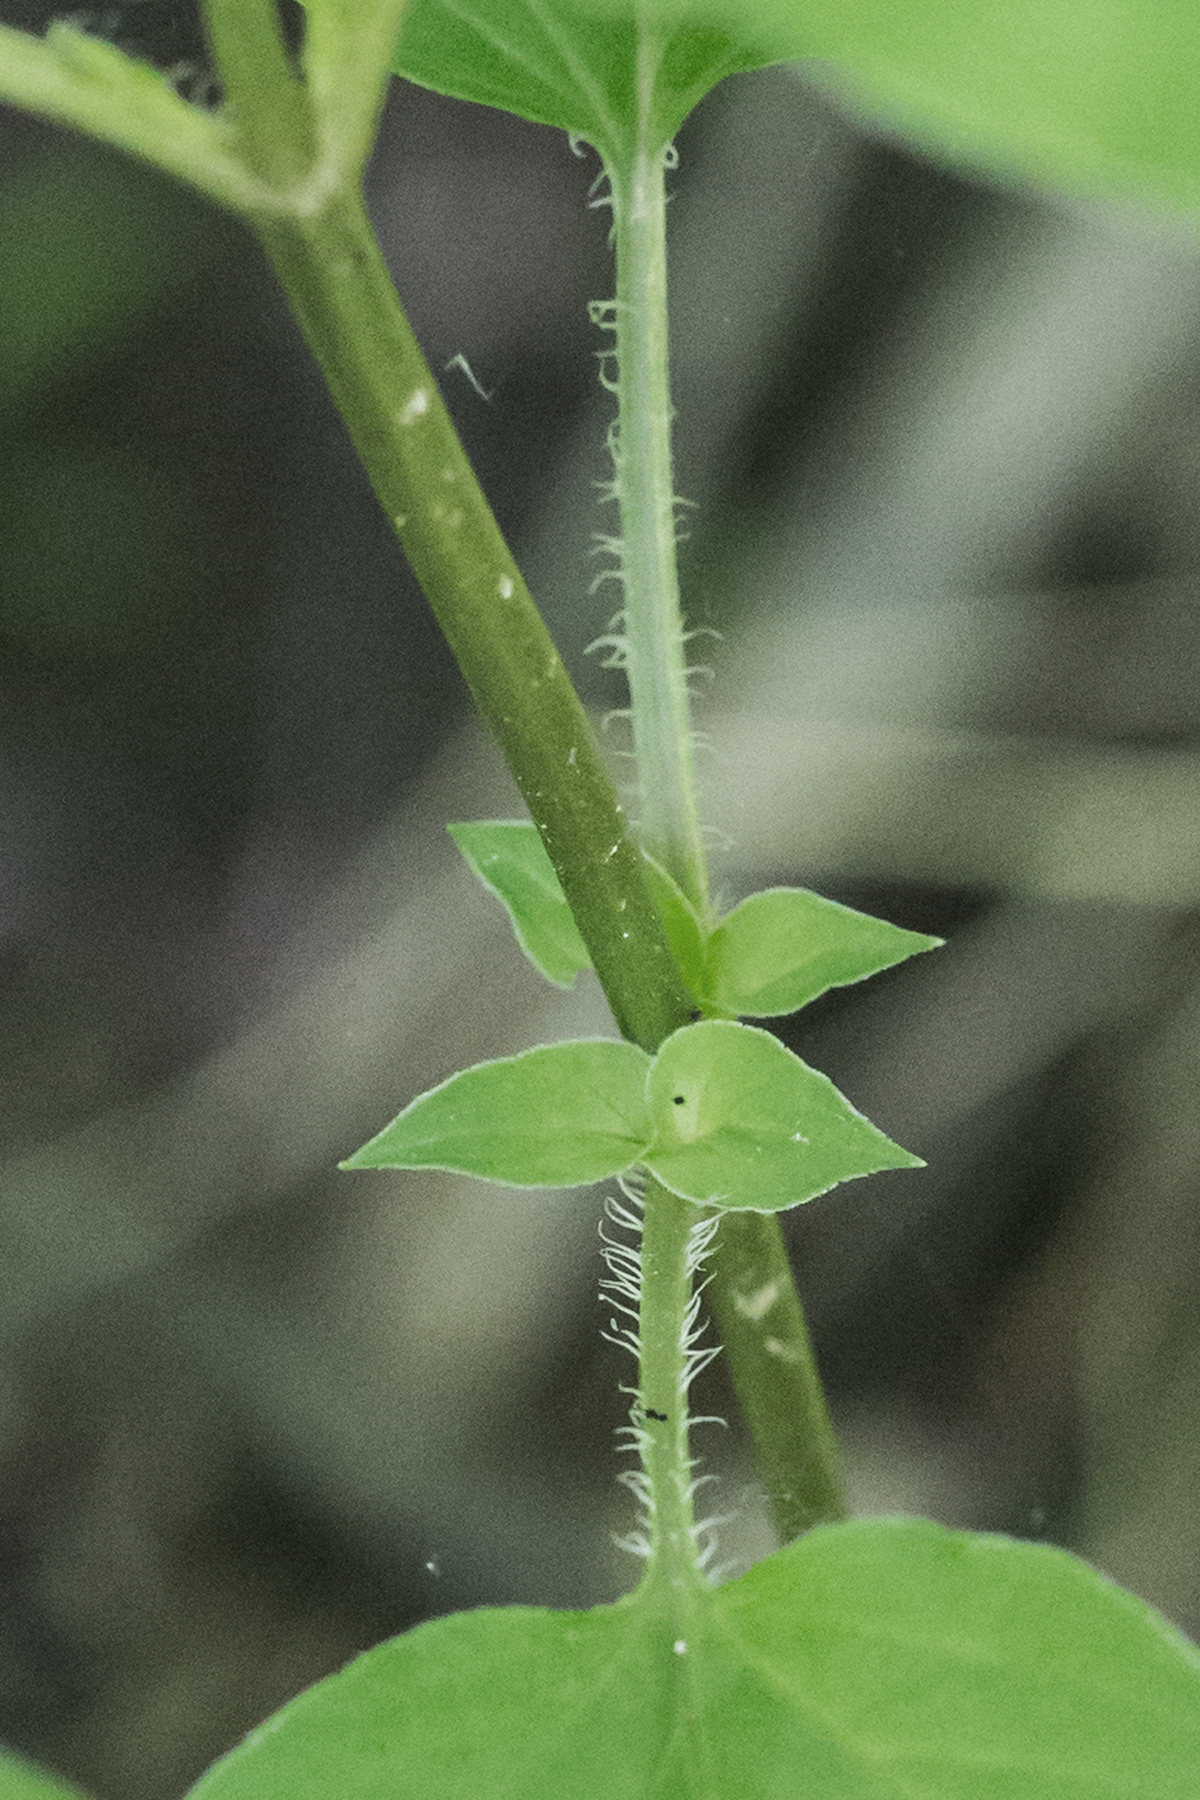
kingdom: Plantae
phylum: Tracheophyta
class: Magnoliopsida
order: Ericales
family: Primulaceae
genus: Lysimachia
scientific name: Lysimachia ciliata
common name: Fringed loosestrife
